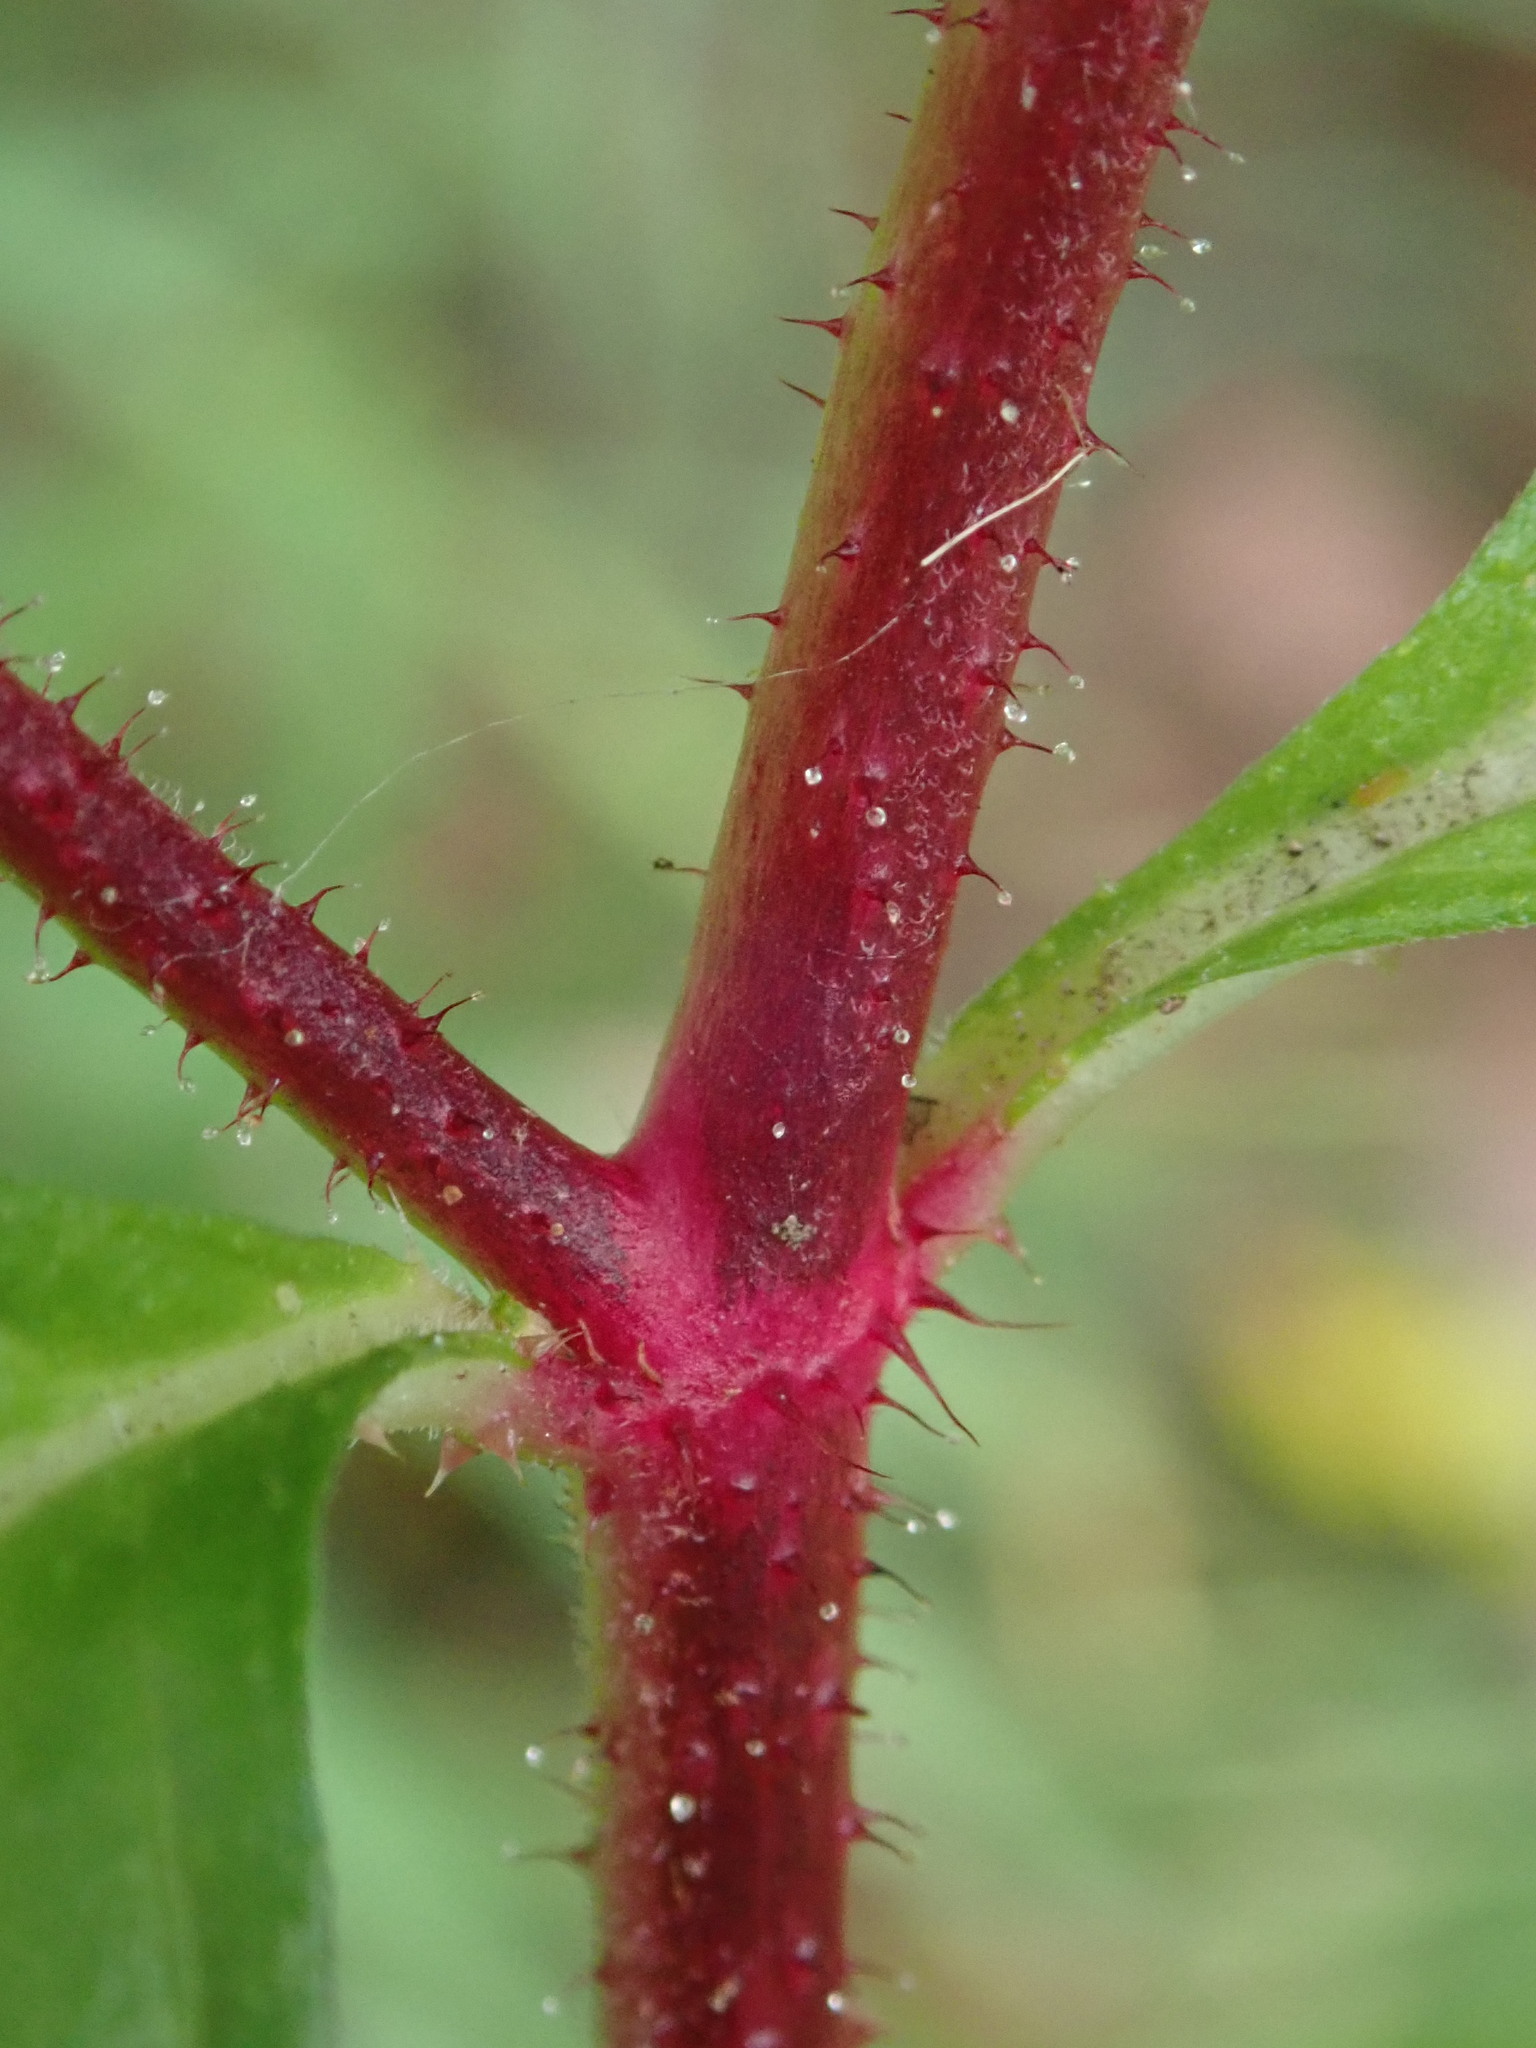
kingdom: Plantae
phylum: Tracheophyta
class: Magnoliopsida
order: Myrtales
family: Lythraceae
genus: Cuphea
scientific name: Cuphea carthagenensis
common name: Colombian waxweed
